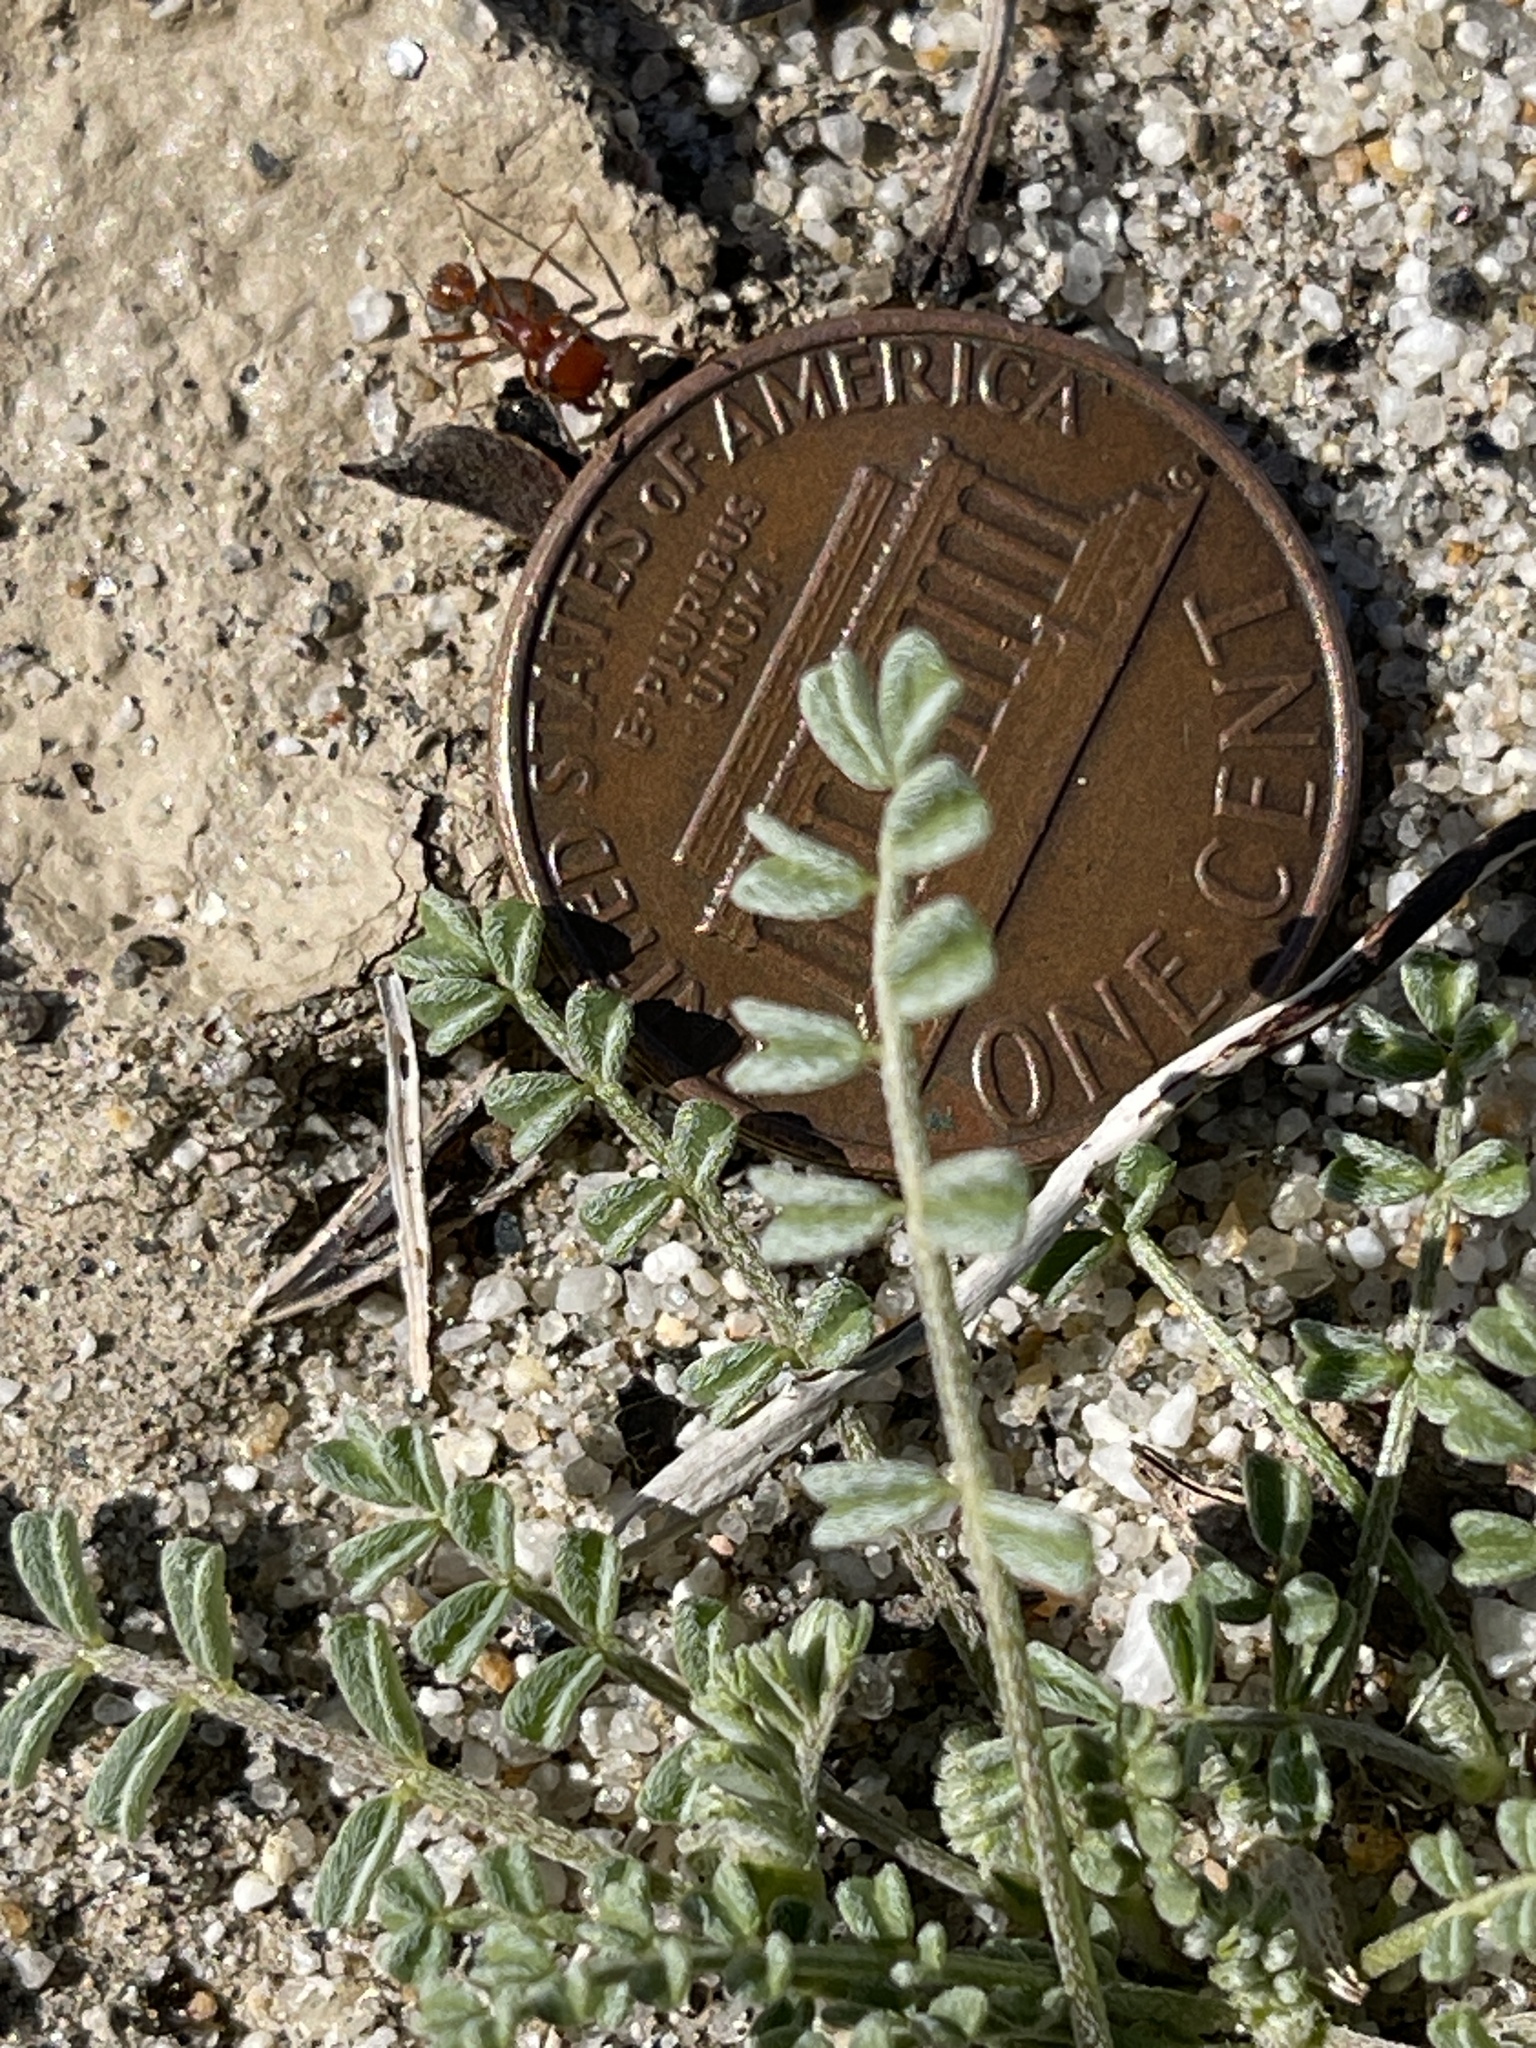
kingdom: Plantae
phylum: Tracheophyta
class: Magnoliopsida
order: Fabales
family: Fabaceae
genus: Astragalus
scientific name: Astragalus didymocarpus
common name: Dwarf white milkvetch
